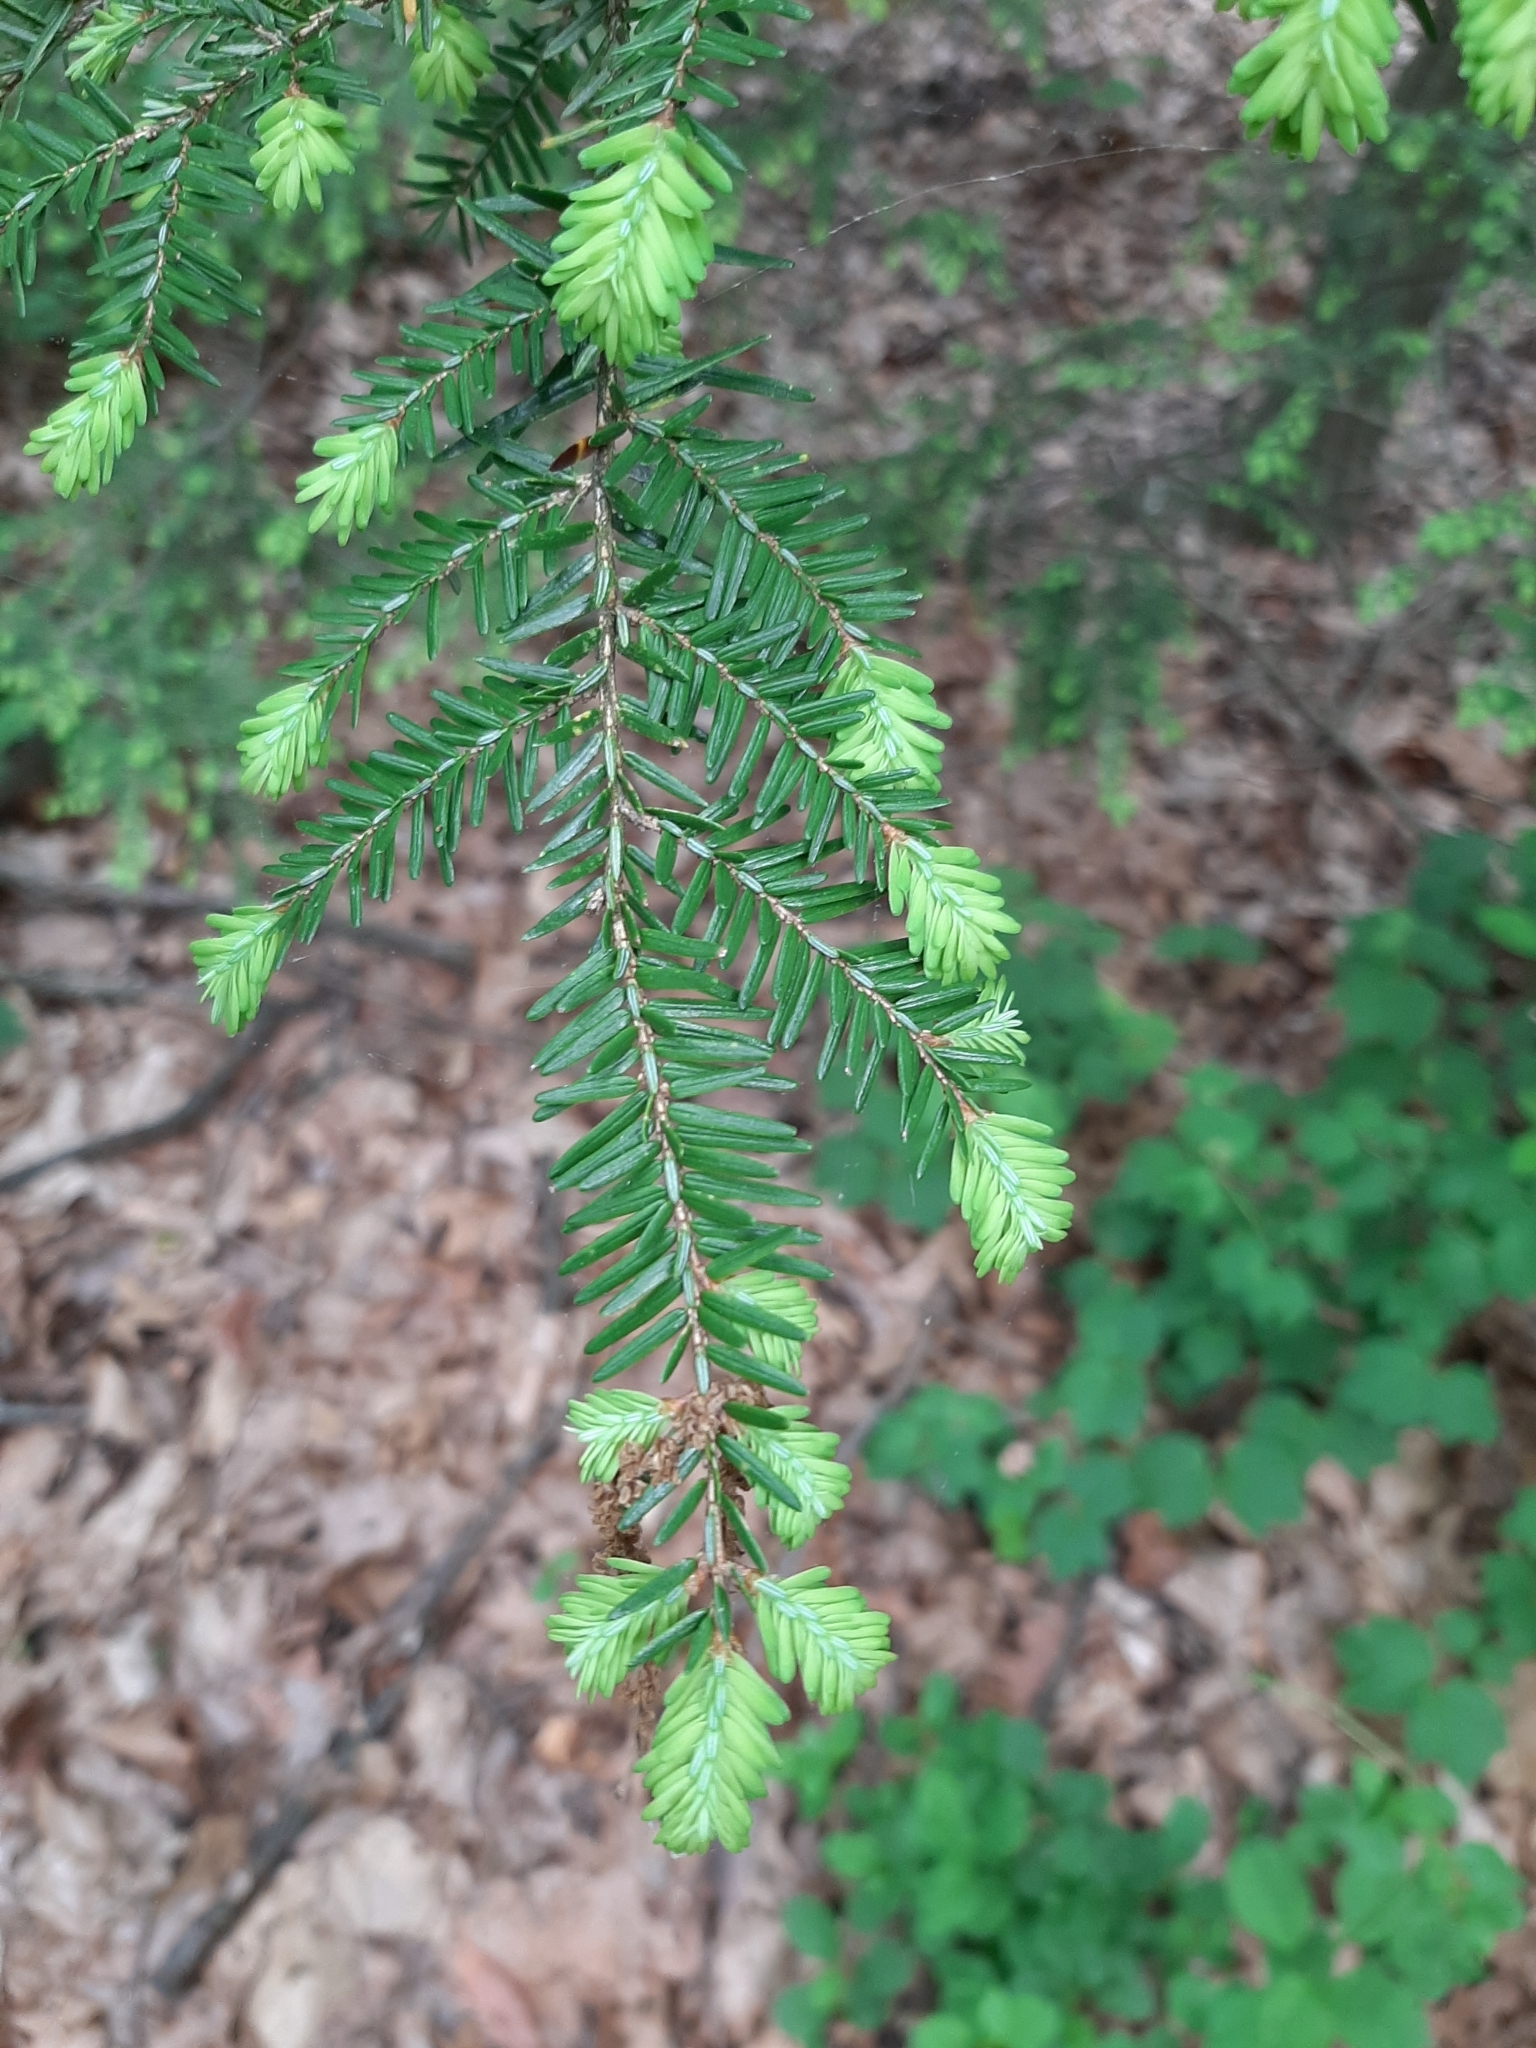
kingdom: Plantae
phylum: Tracheophyta
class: Pinopsida
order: Pinales
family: Pinaceae
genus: Tsuga
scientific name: Tsuga canadensis
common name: Eastern hemlock
